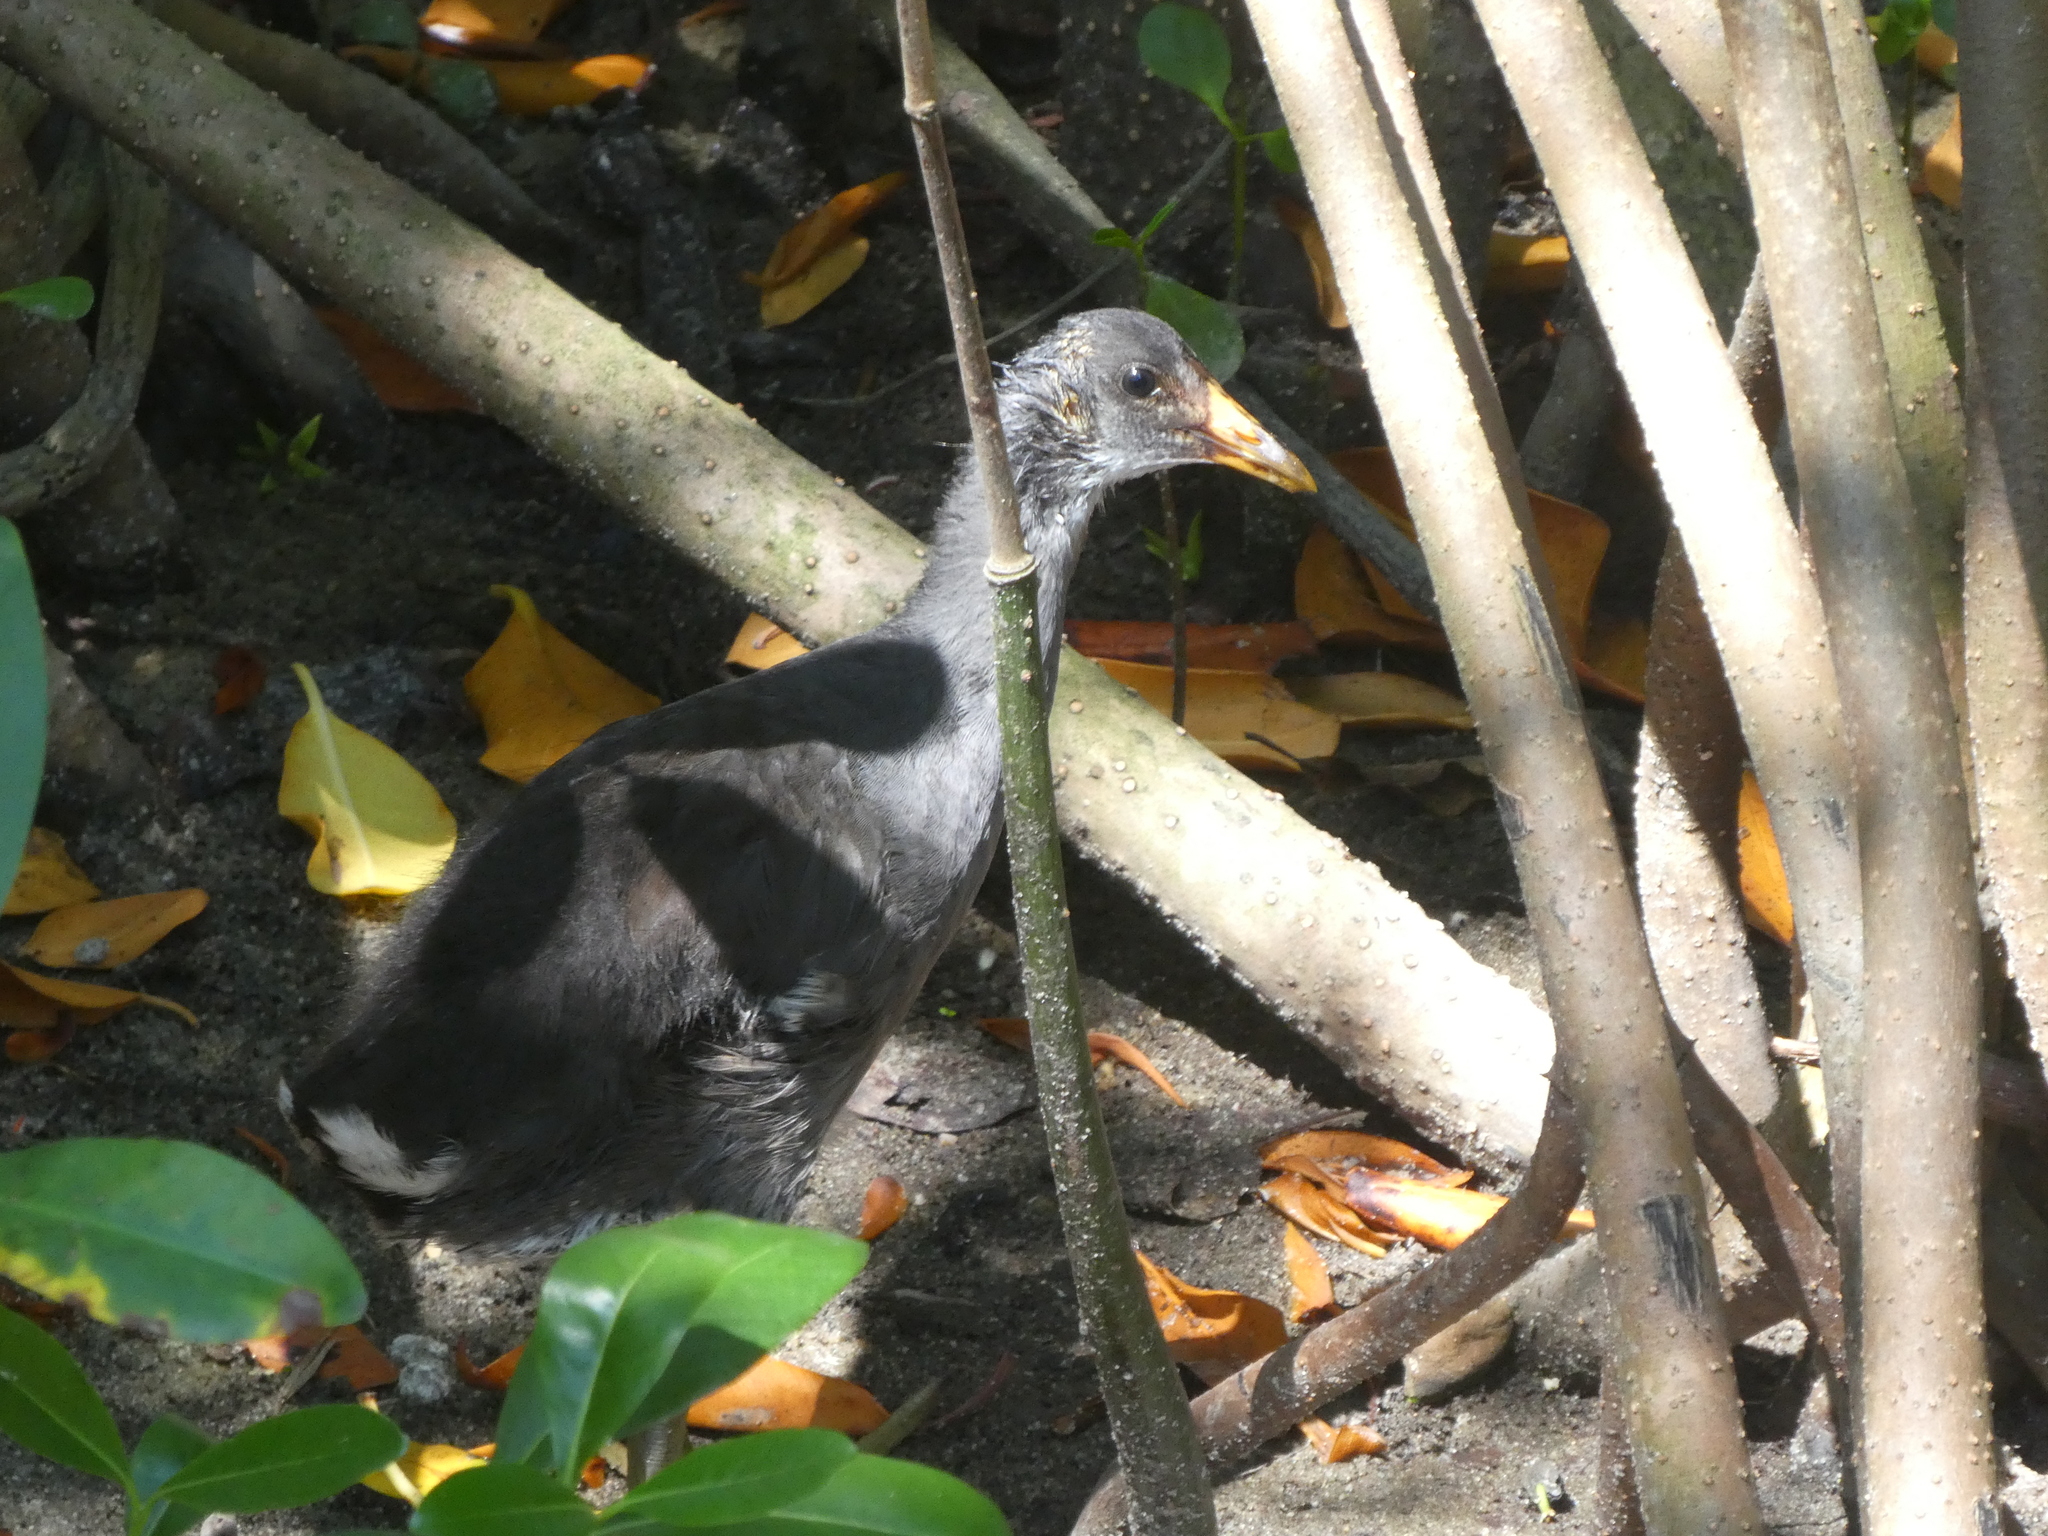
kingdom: Animalia
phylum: Chordata
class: Aves
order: Gruiformes
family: Rallidae
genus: Gallinula
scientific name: Gallinula chloropus
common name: Common moorhen
